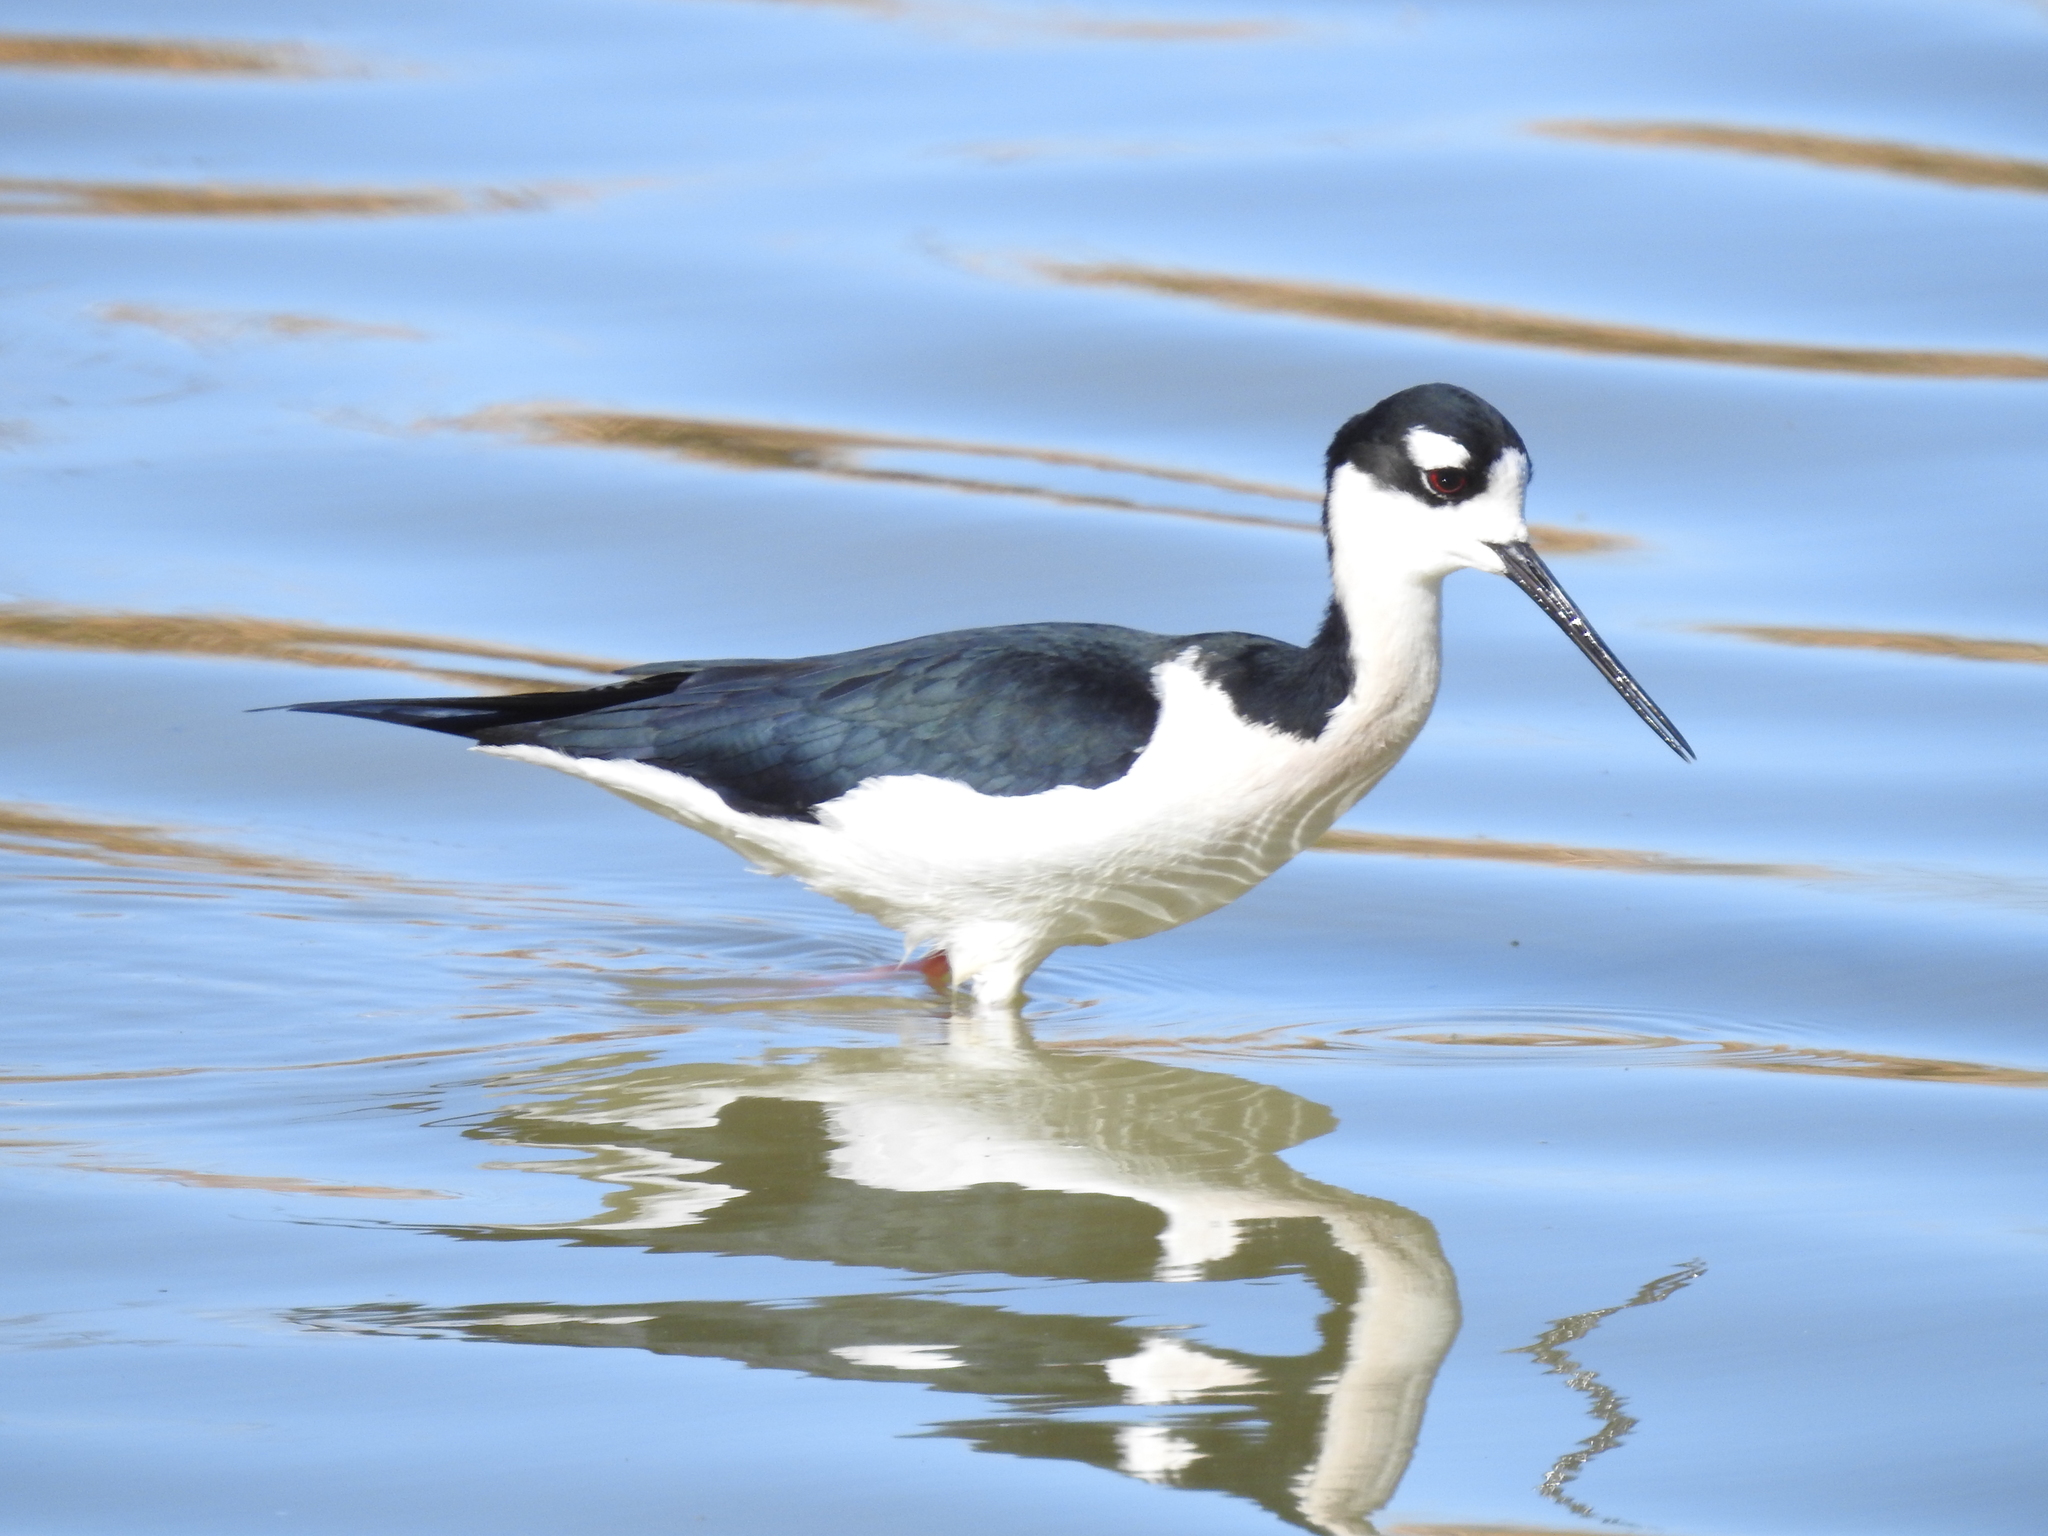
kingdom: Animalia
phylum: Chordata
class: Aves
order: Charadriiformes
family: Recurvirostridae
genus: Himantopus
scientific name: Himantopus mexicanus
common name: Black-necked stilt
